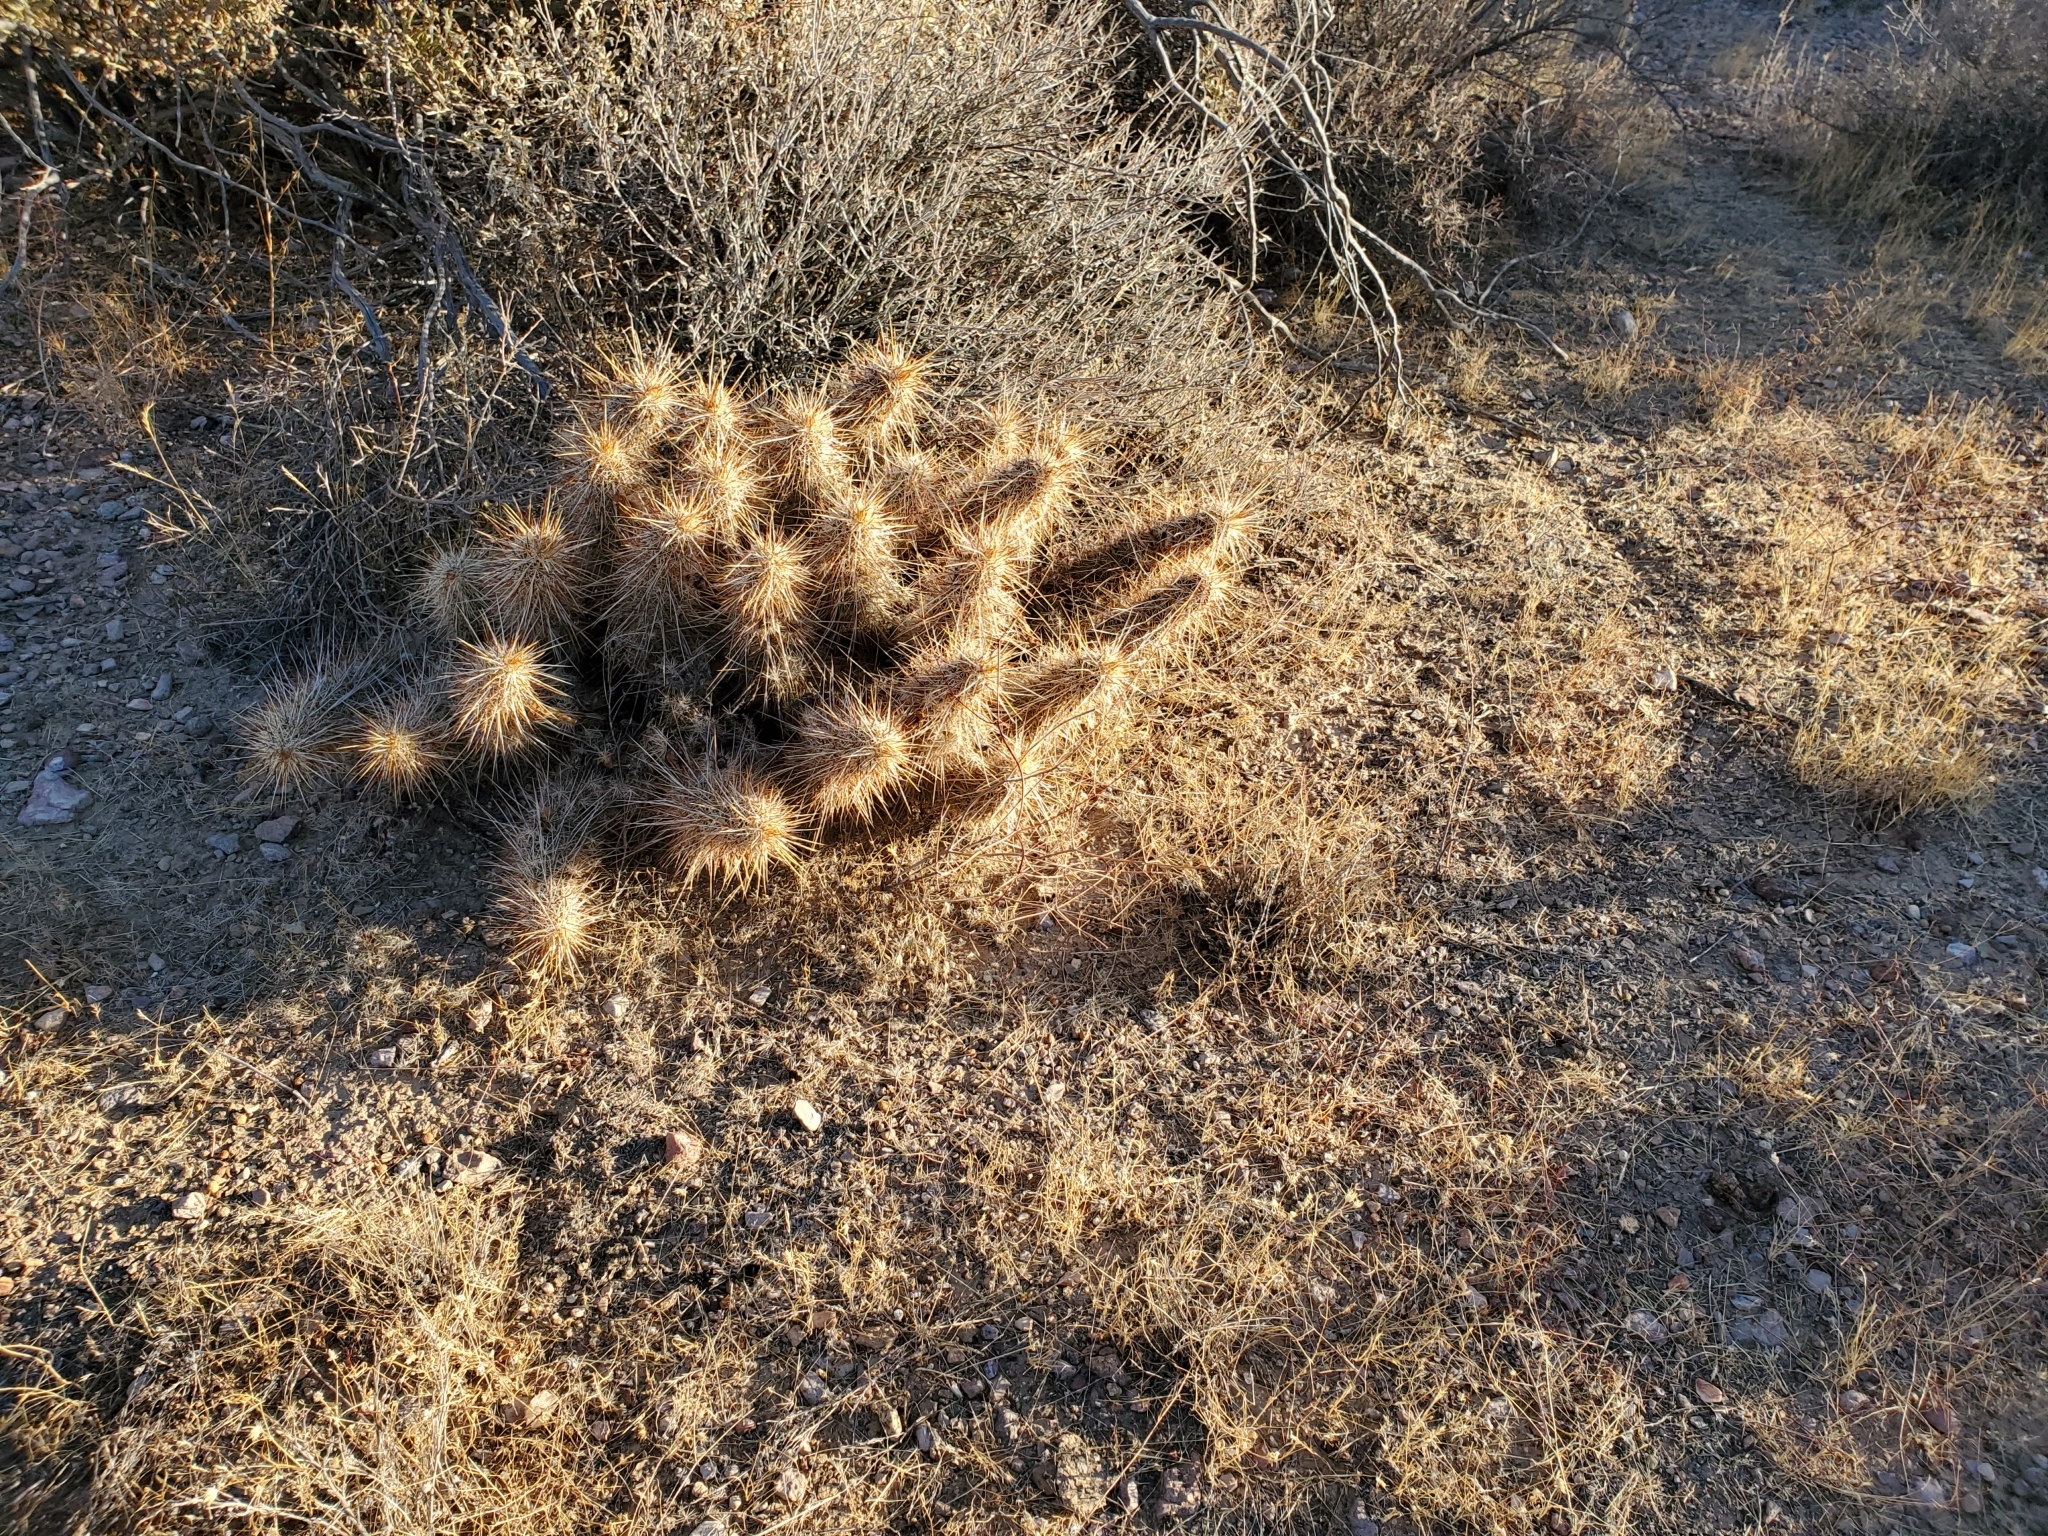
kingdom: Plantae
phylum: Tracheophyta
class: Magnoliopsida
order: Caryophyllales
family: Cactaceae
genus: Echinocereus
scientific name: Echinocereus engelmannii
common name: Engelmann's hedgehog cactus
